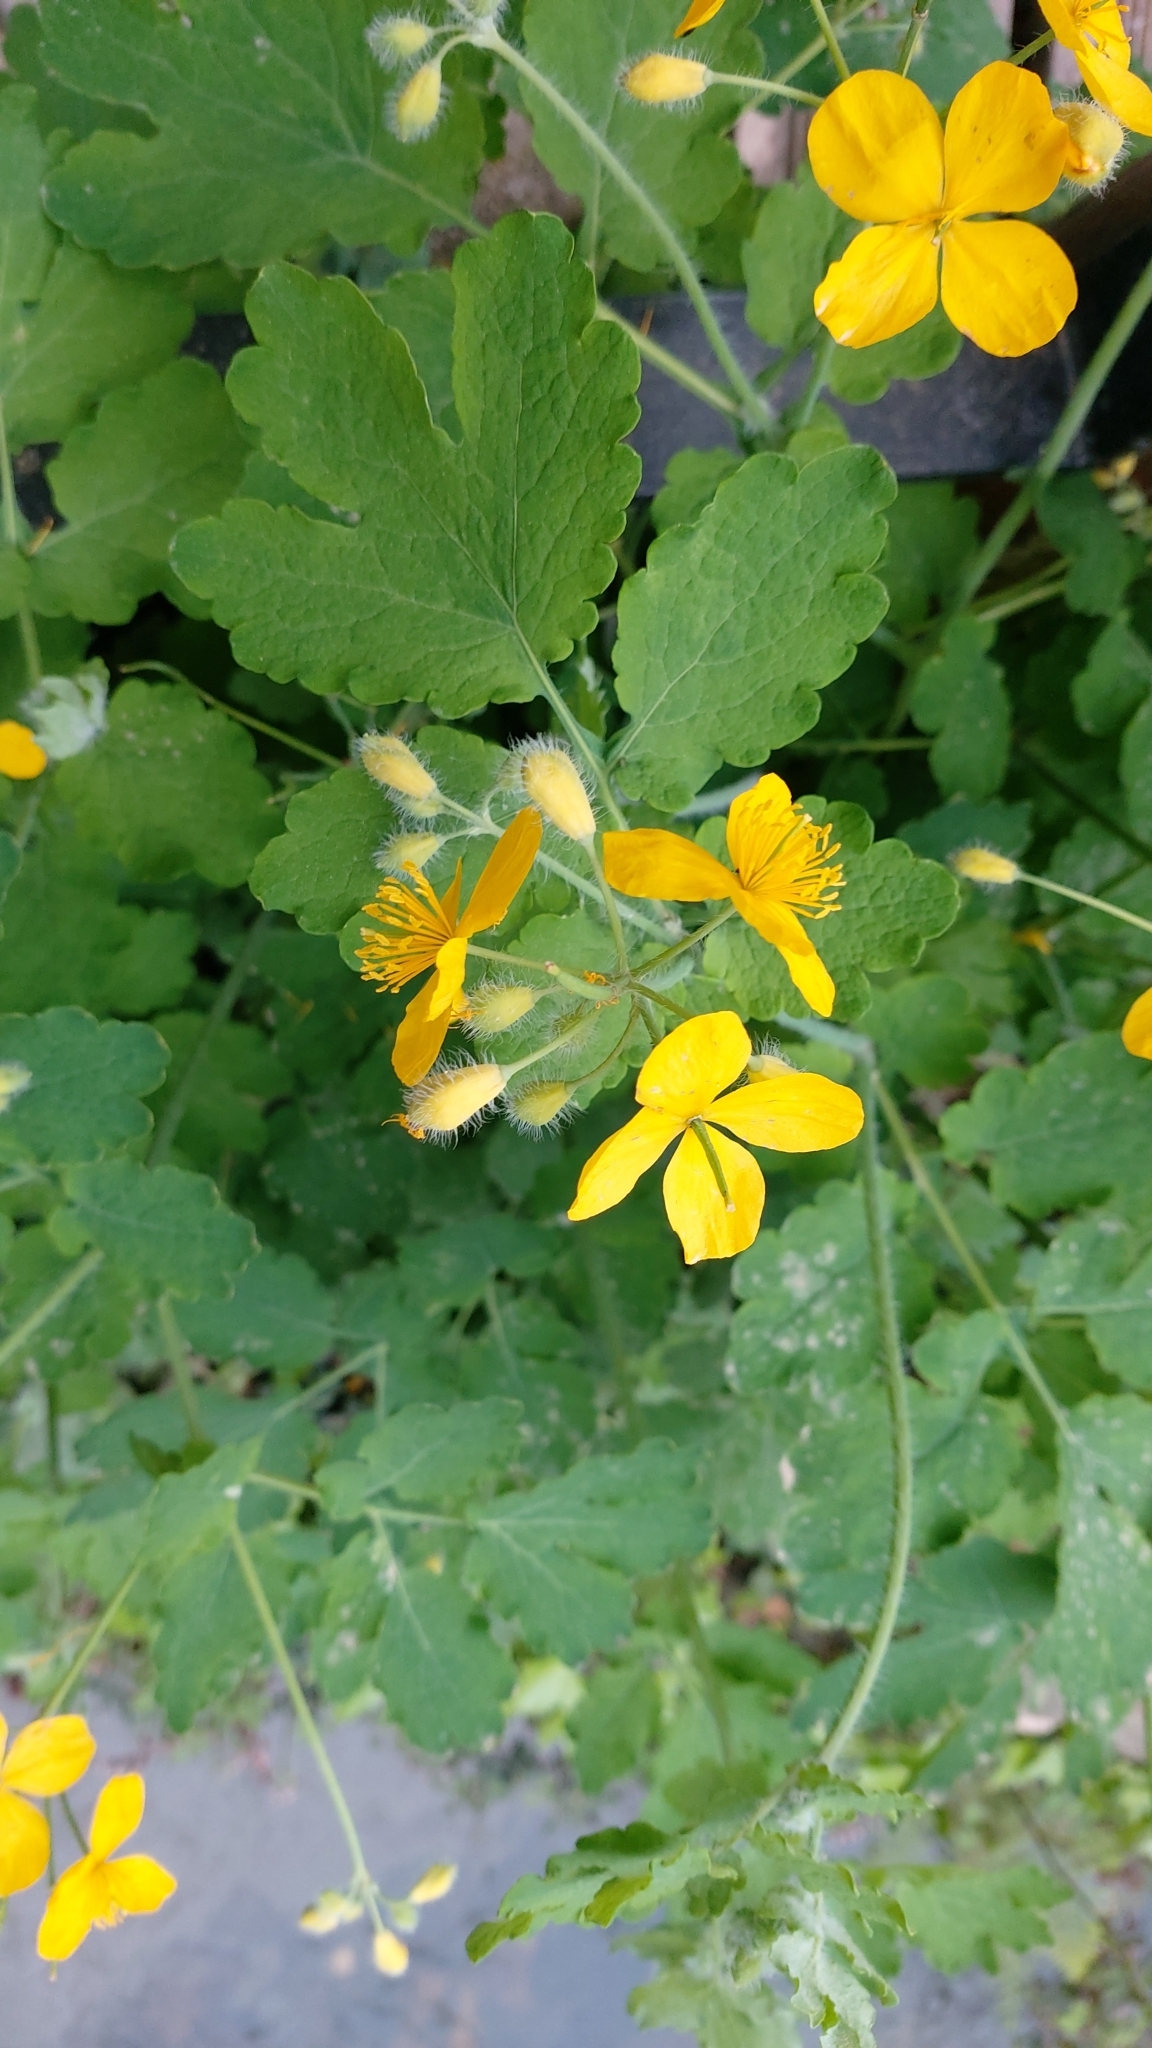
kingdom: Plantae
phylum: Tracheophyta
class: Magnoliopsida
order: Ranunculales
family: Papaveraceae
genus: Chelidonium
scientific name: Chelidonium majus
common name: Greater celandine
